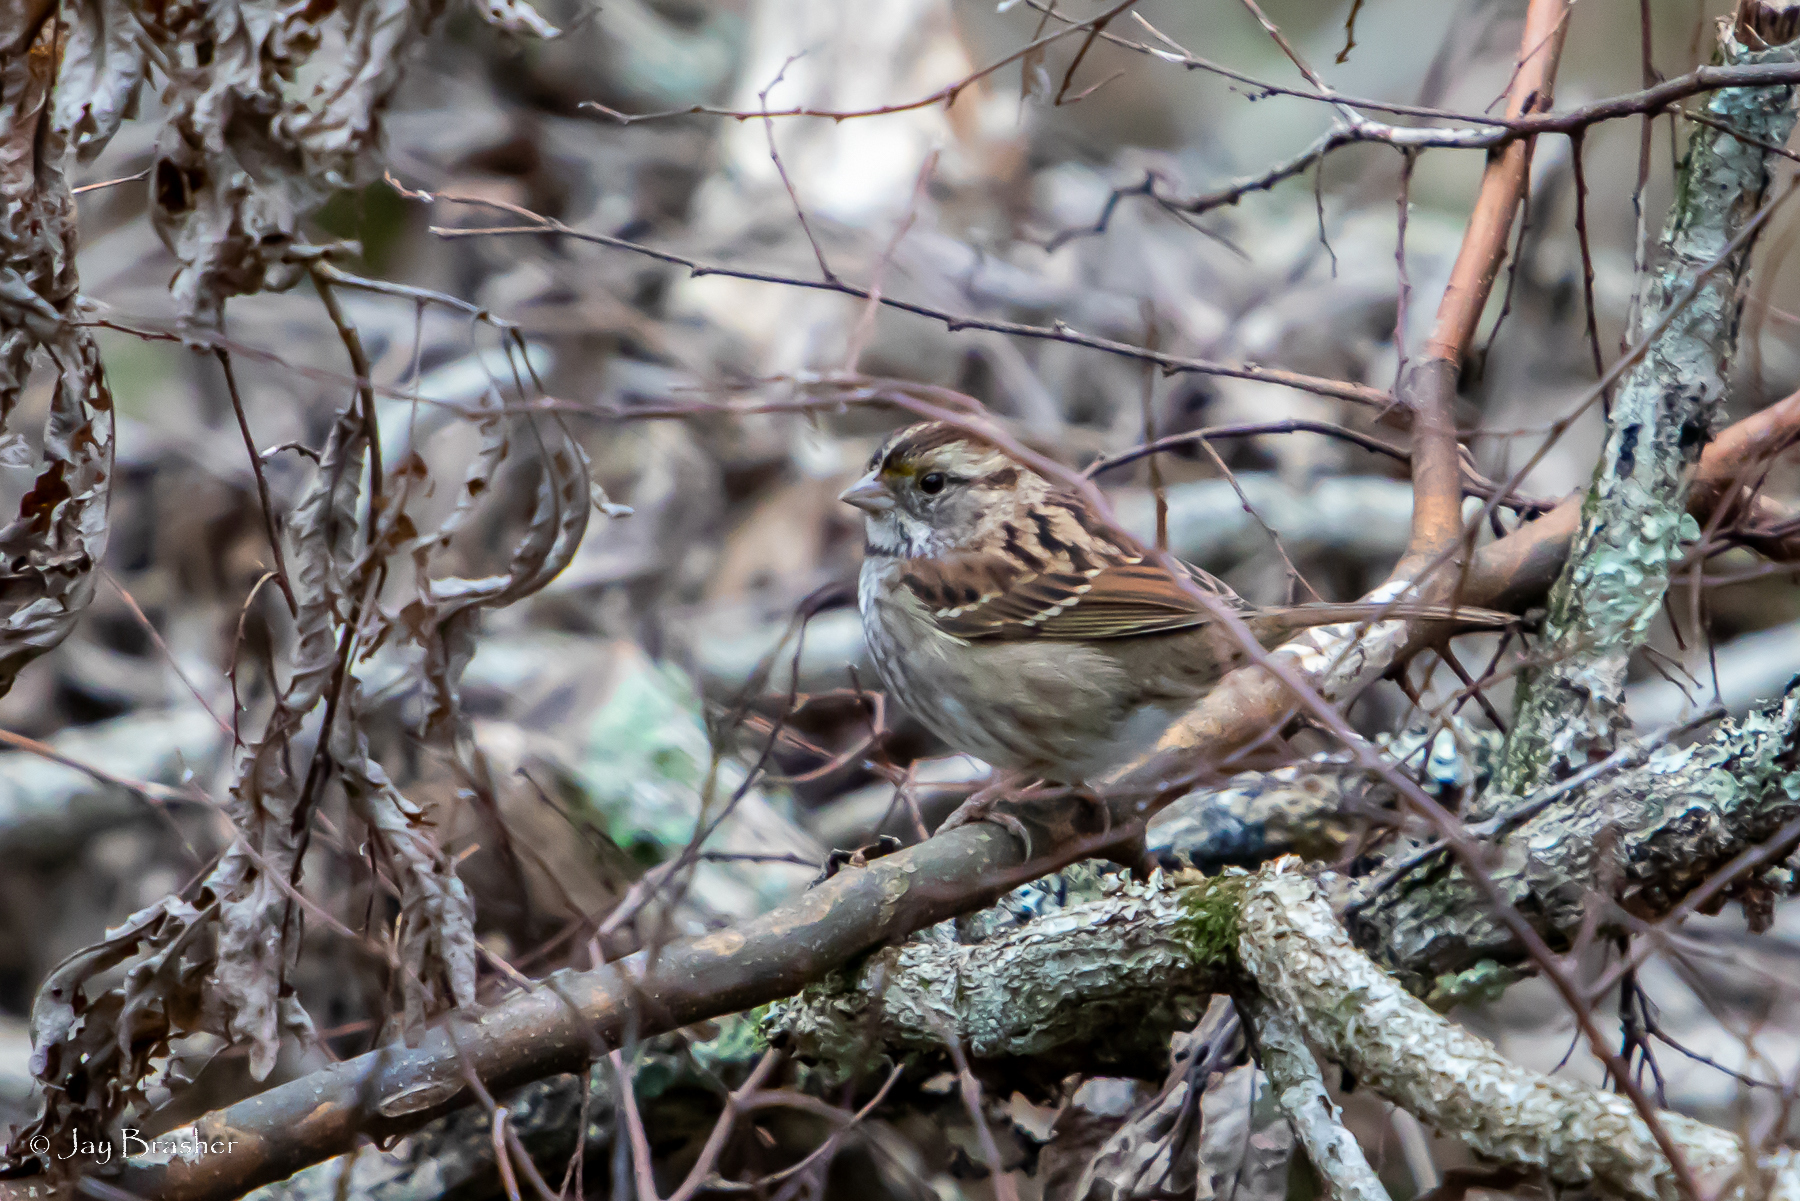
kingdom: Animalia
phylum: Chordata
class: Aves
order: Passeriformes
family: Passerellidae
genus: Zonotrichia
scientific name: Zonotrichia albicollis
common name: White-throated sparrow
